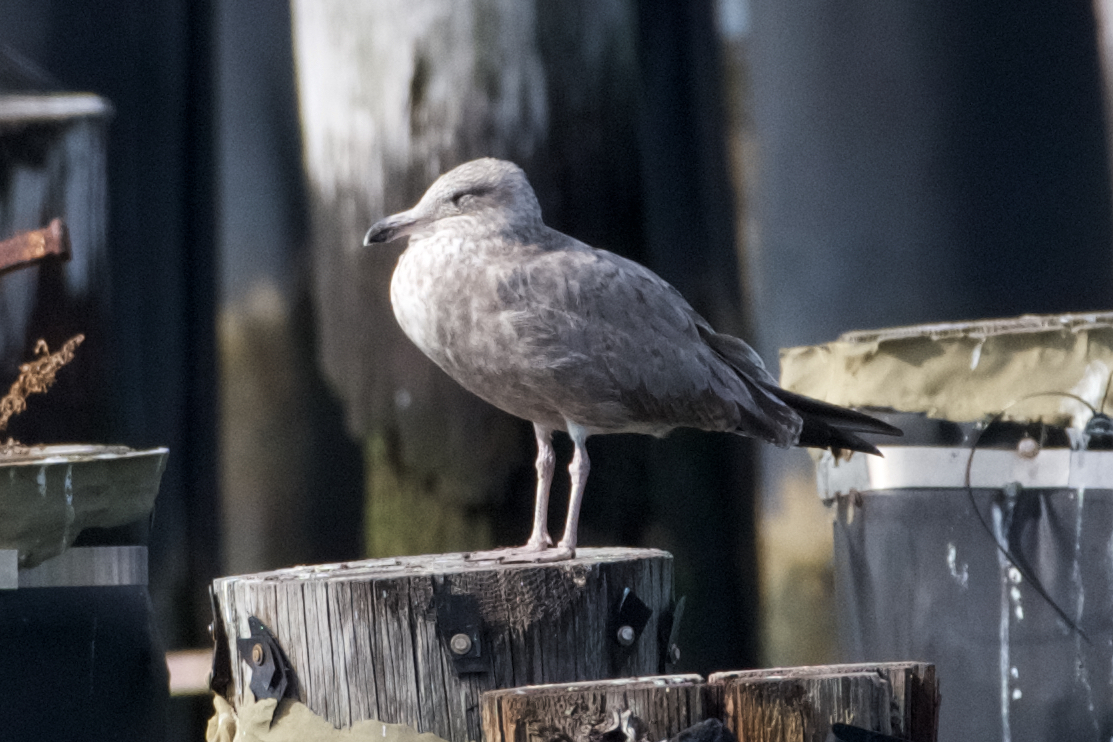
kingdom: Animalia
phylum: Chordata
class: Aves
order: Charadriiformes
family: Laridae
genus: Larus
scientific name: Larus argentatus
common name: Herring gull
